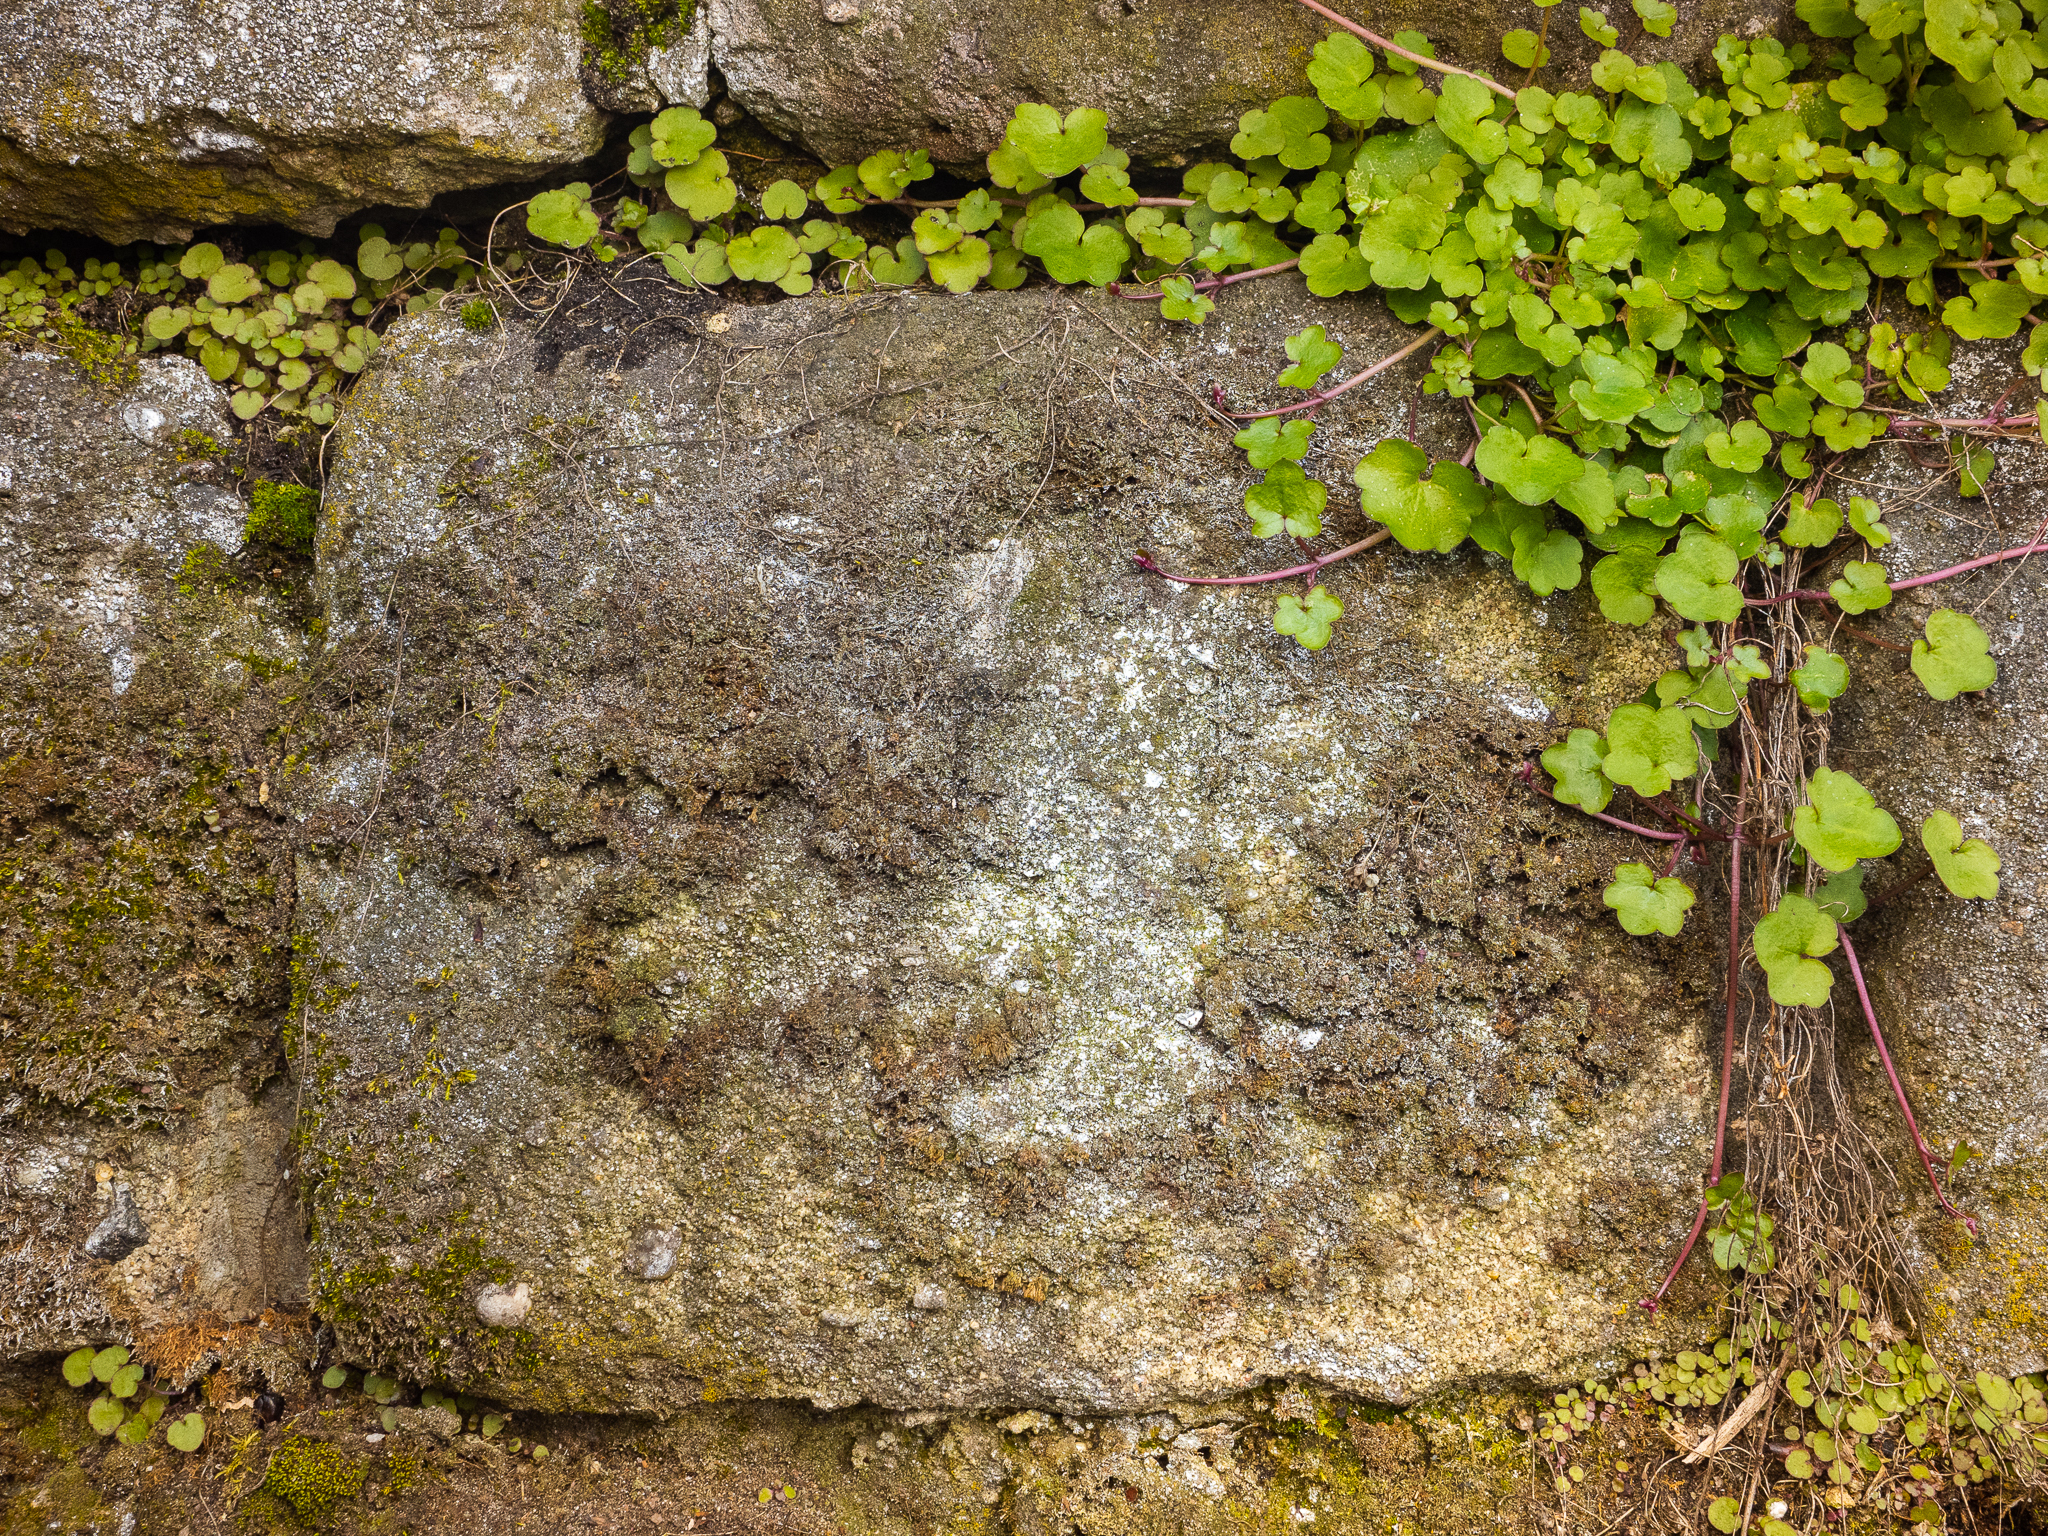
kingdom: Plantae
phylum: Tracheophyta
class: Magnoliopsida
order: Lamiales
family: Plantaginaceae
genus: Cymbalaria
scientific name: Cymbalaria muralis
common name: Ivy-leaved toadflax
